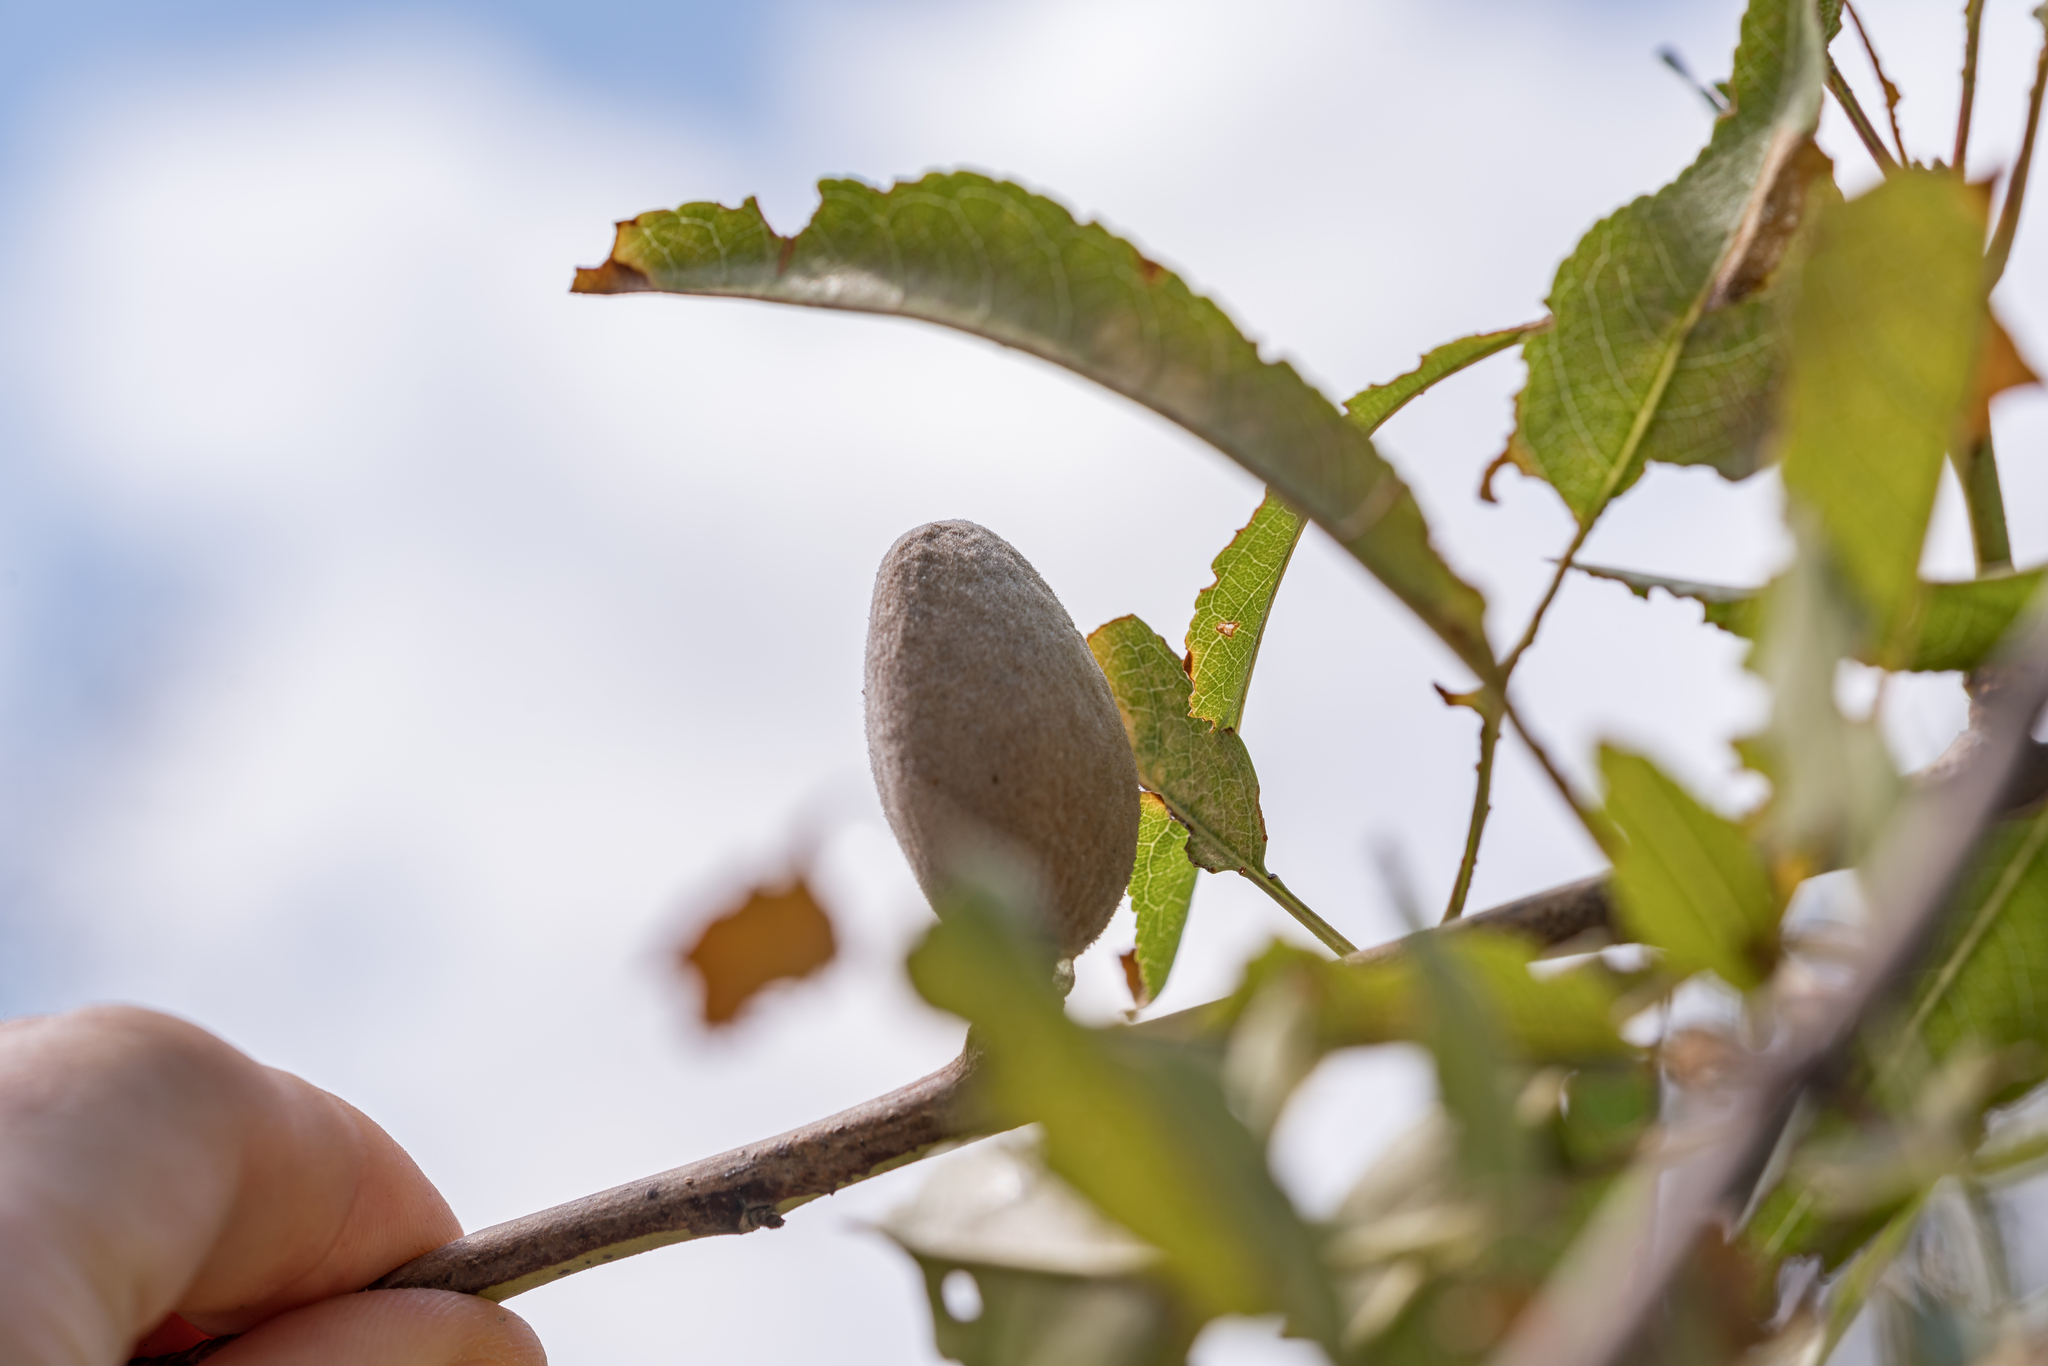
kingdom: Plantae
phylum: Tracheophyta
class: Magnoliopsida
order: Rosales
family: Rosaceae
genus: Prunus
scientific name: Prunus amygdalus
